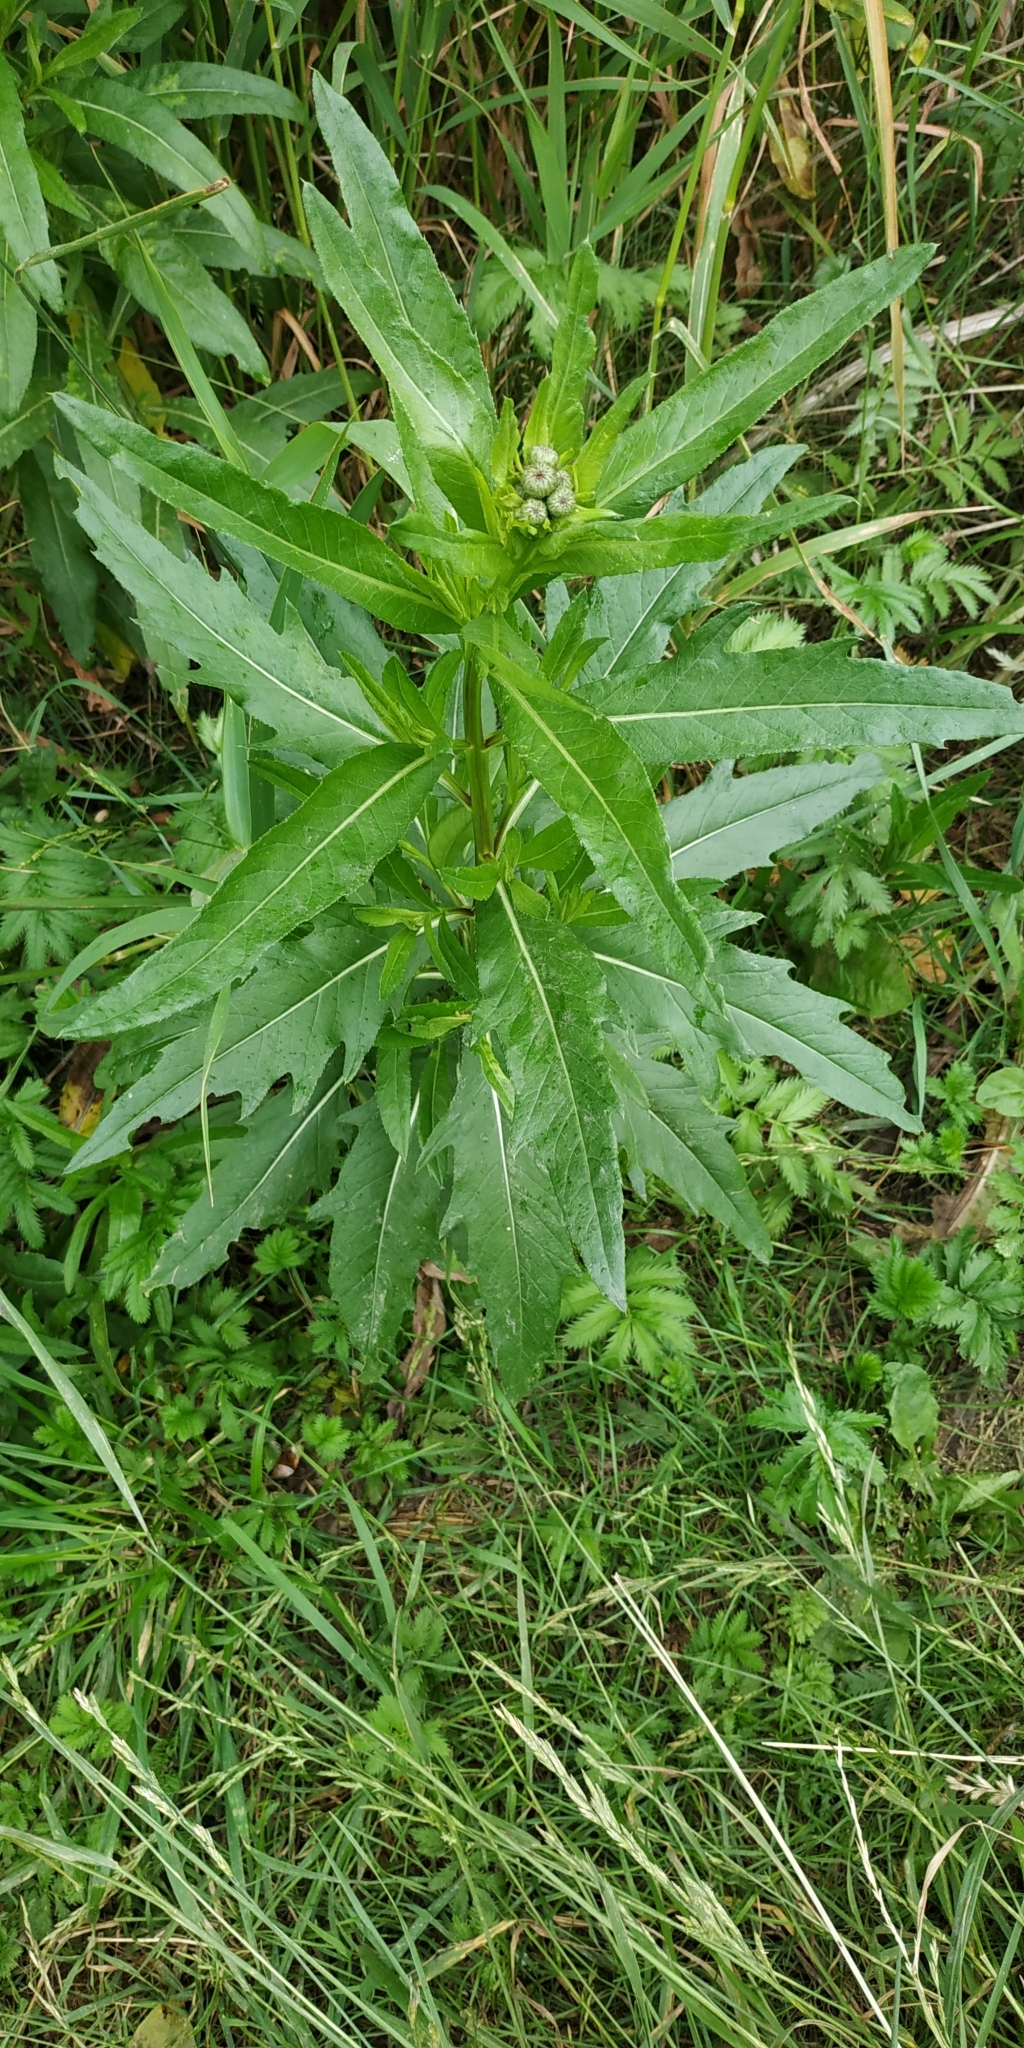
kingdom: Plantae
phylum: Tracheophyta
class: Magnoliopsida
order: Asterales
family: Asteraceae
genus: Cirsium
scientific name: Cirsium arvense
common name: Creeping thistle
